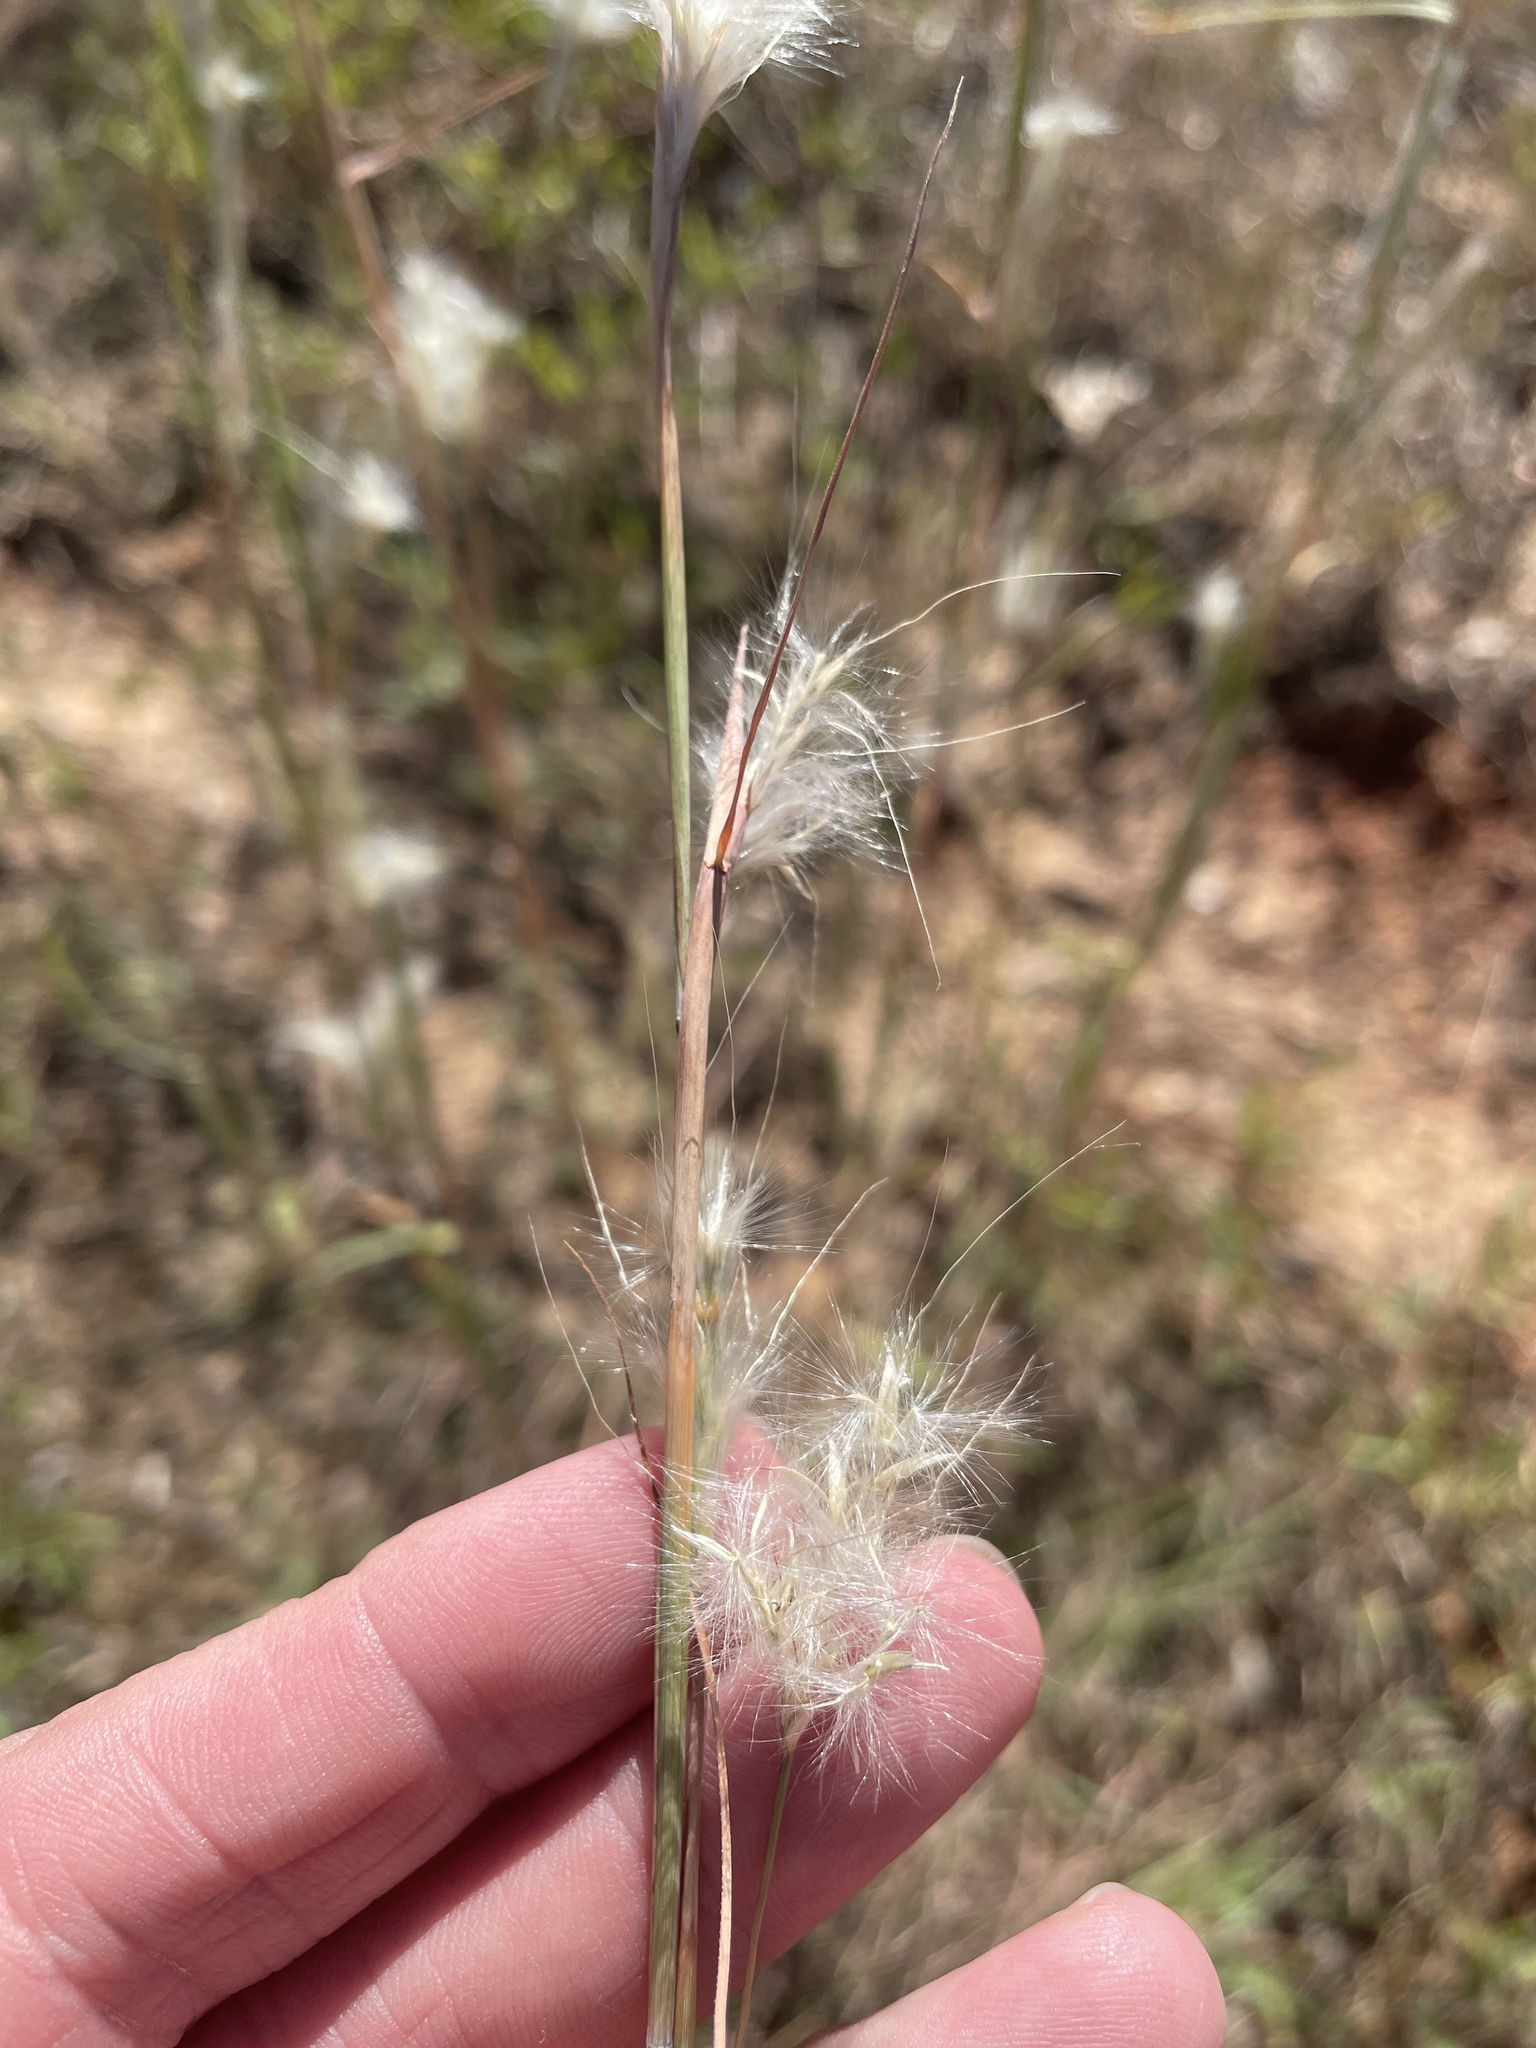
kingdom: Plantae
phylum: Tracheophyta
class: Liliopsida
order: Poales
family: Poaceae
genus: Andropogon
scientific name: Andropogon ternarius
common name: Split bluestem
